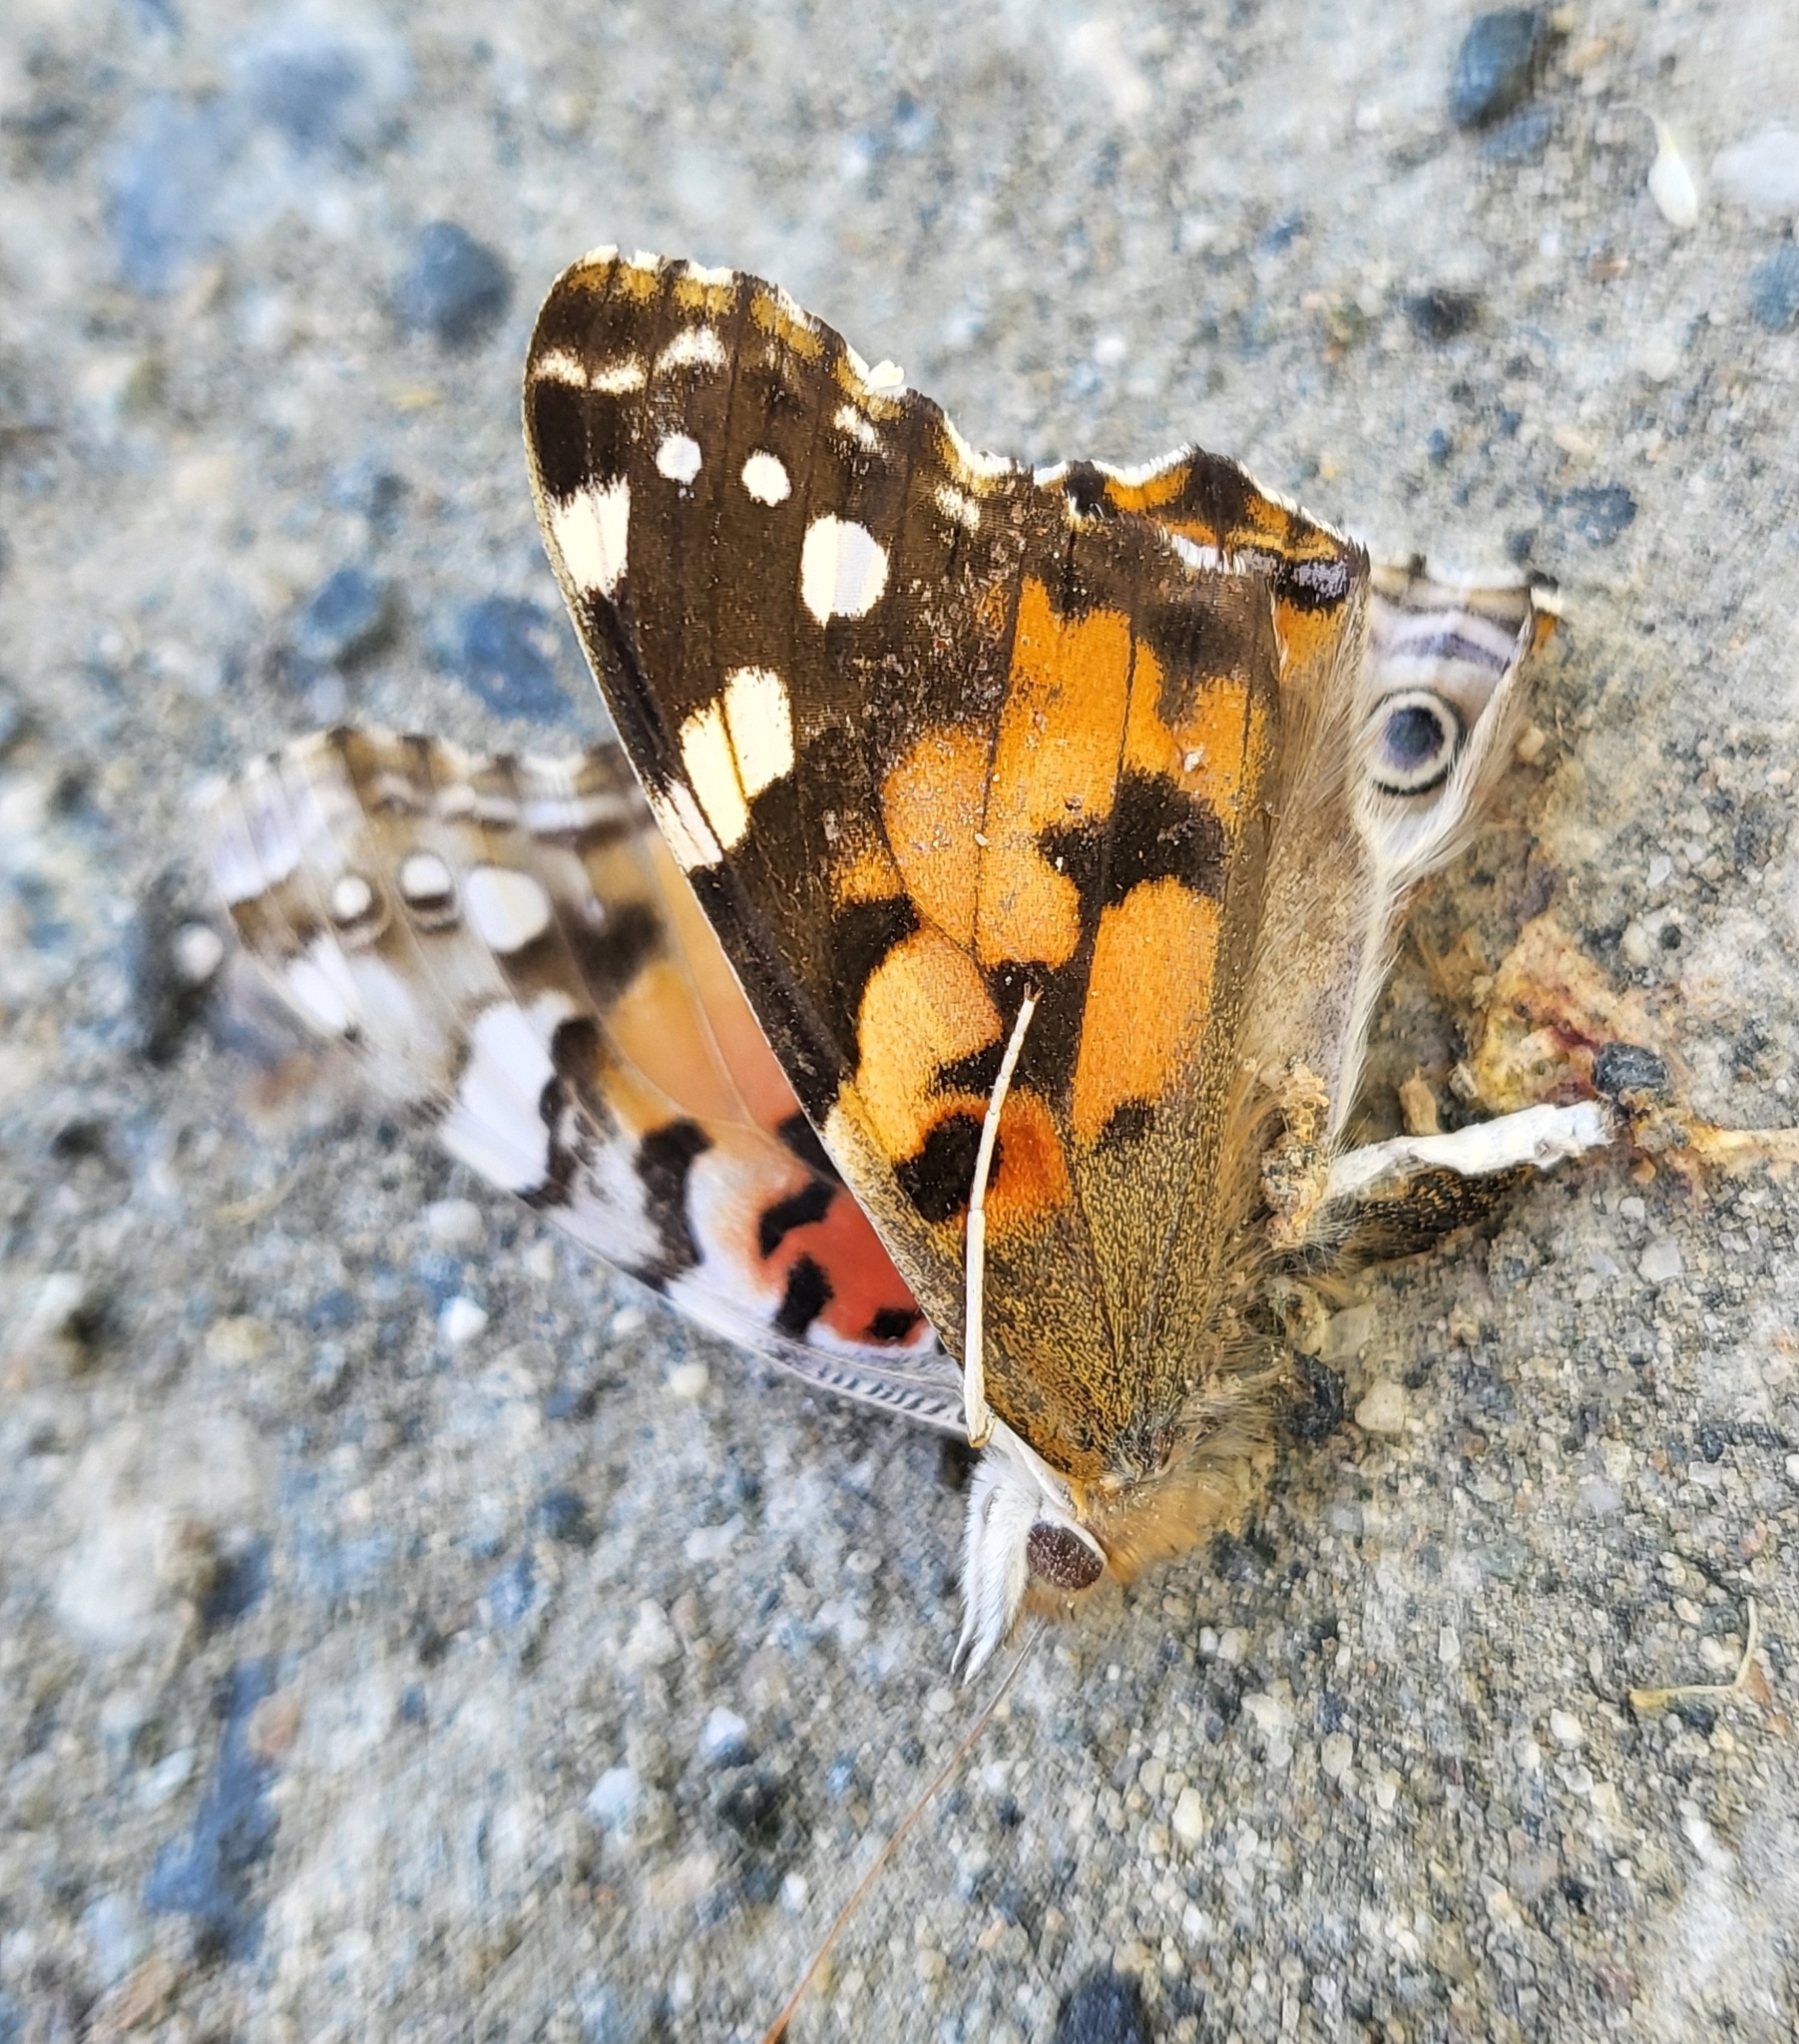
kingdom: Animalia
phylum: Arthropoda
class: Insecta
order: Lepidoptera
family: Nymphalidae
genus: Vanessa
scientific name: Vanessa cardui
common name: Painted lady
